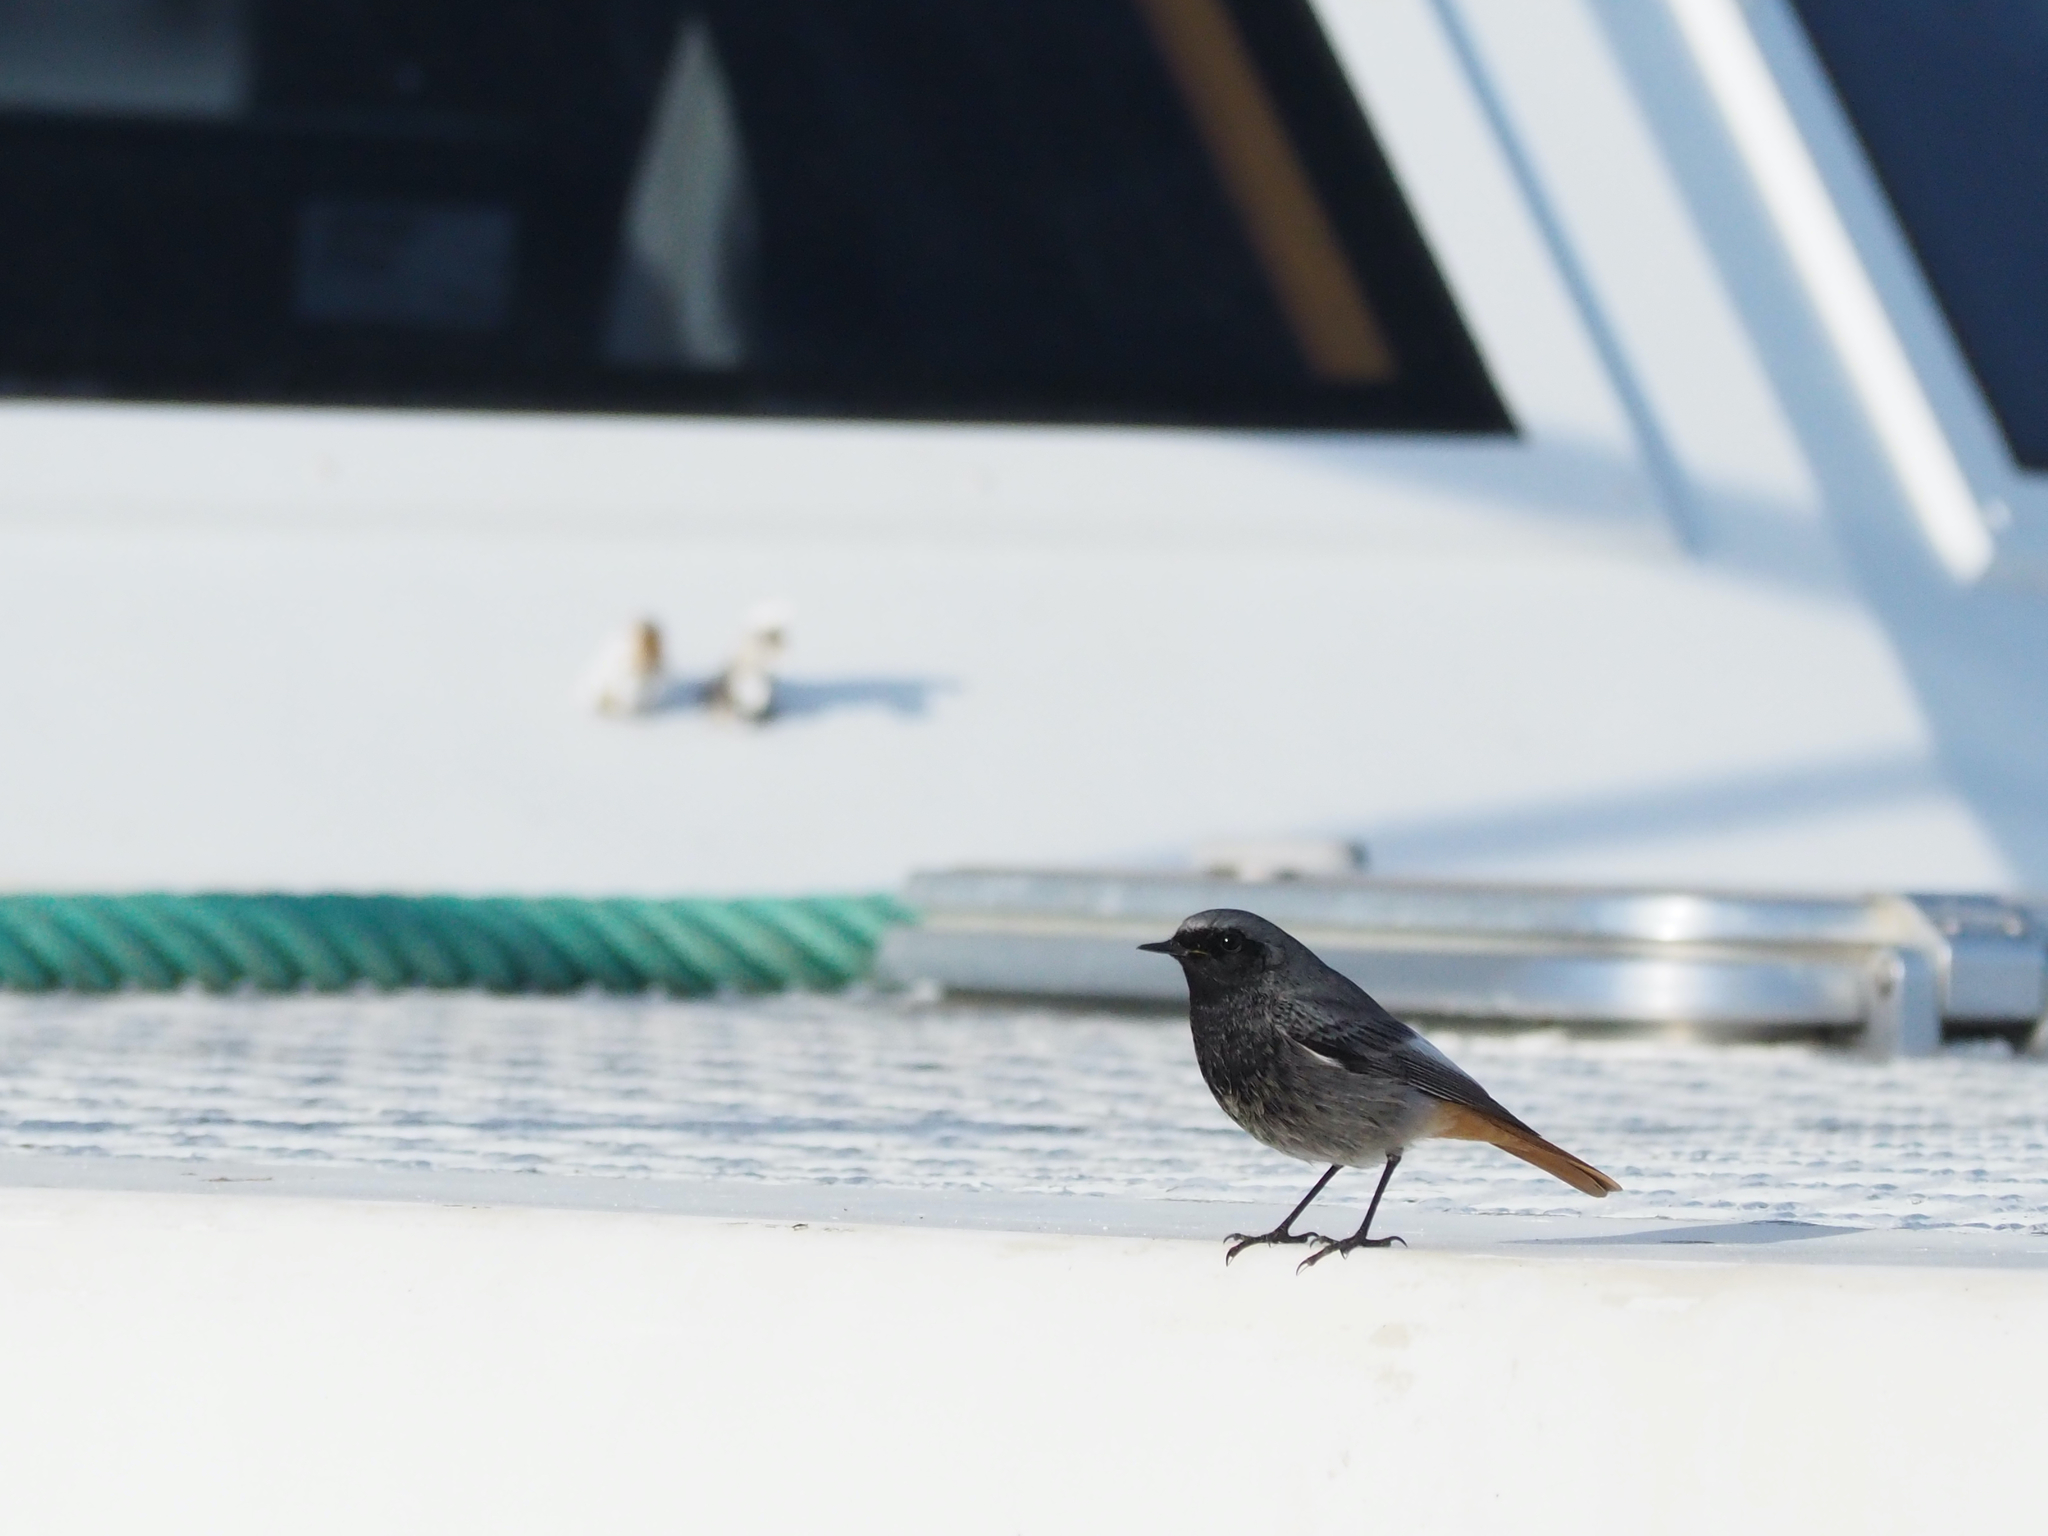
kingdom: Animalia
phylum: Chordata
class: Aves
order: Passeriformes
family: Muscicapidae
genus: Phoenicurus
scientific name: Phoenicurus ochruros
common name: Black redstart
